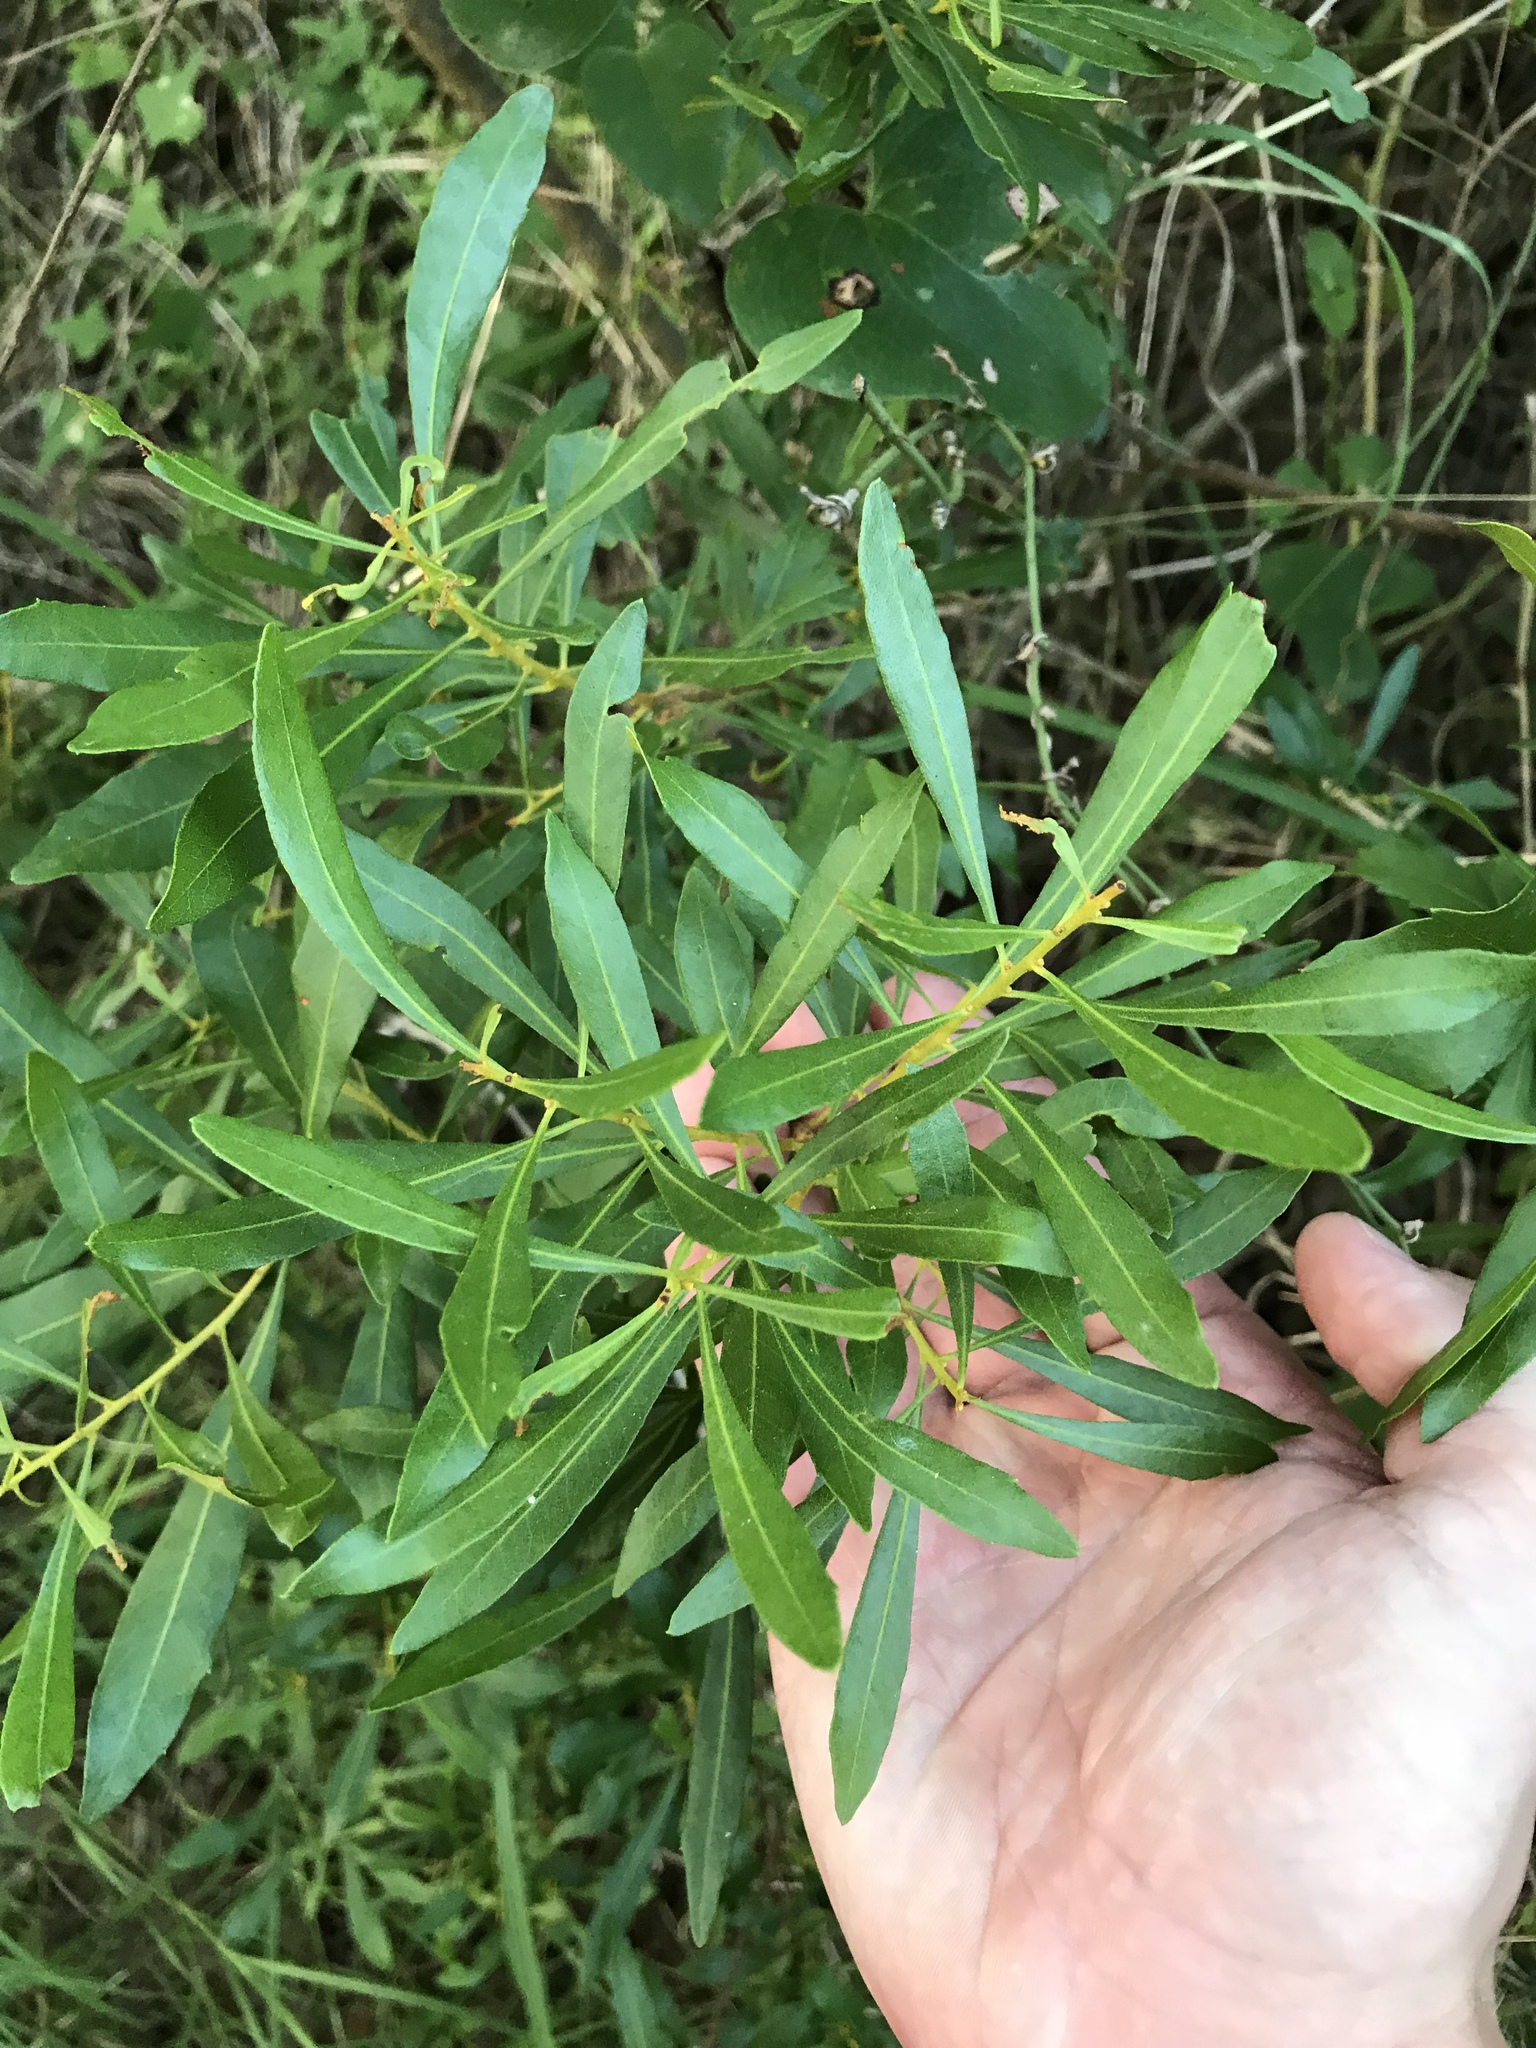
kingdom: Plantae
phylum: Tracheophyta
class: Magnoliopsida
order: Fagales
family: Myricaceae
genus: Morella
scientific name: Morella cerifera
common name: Wax myrtle
